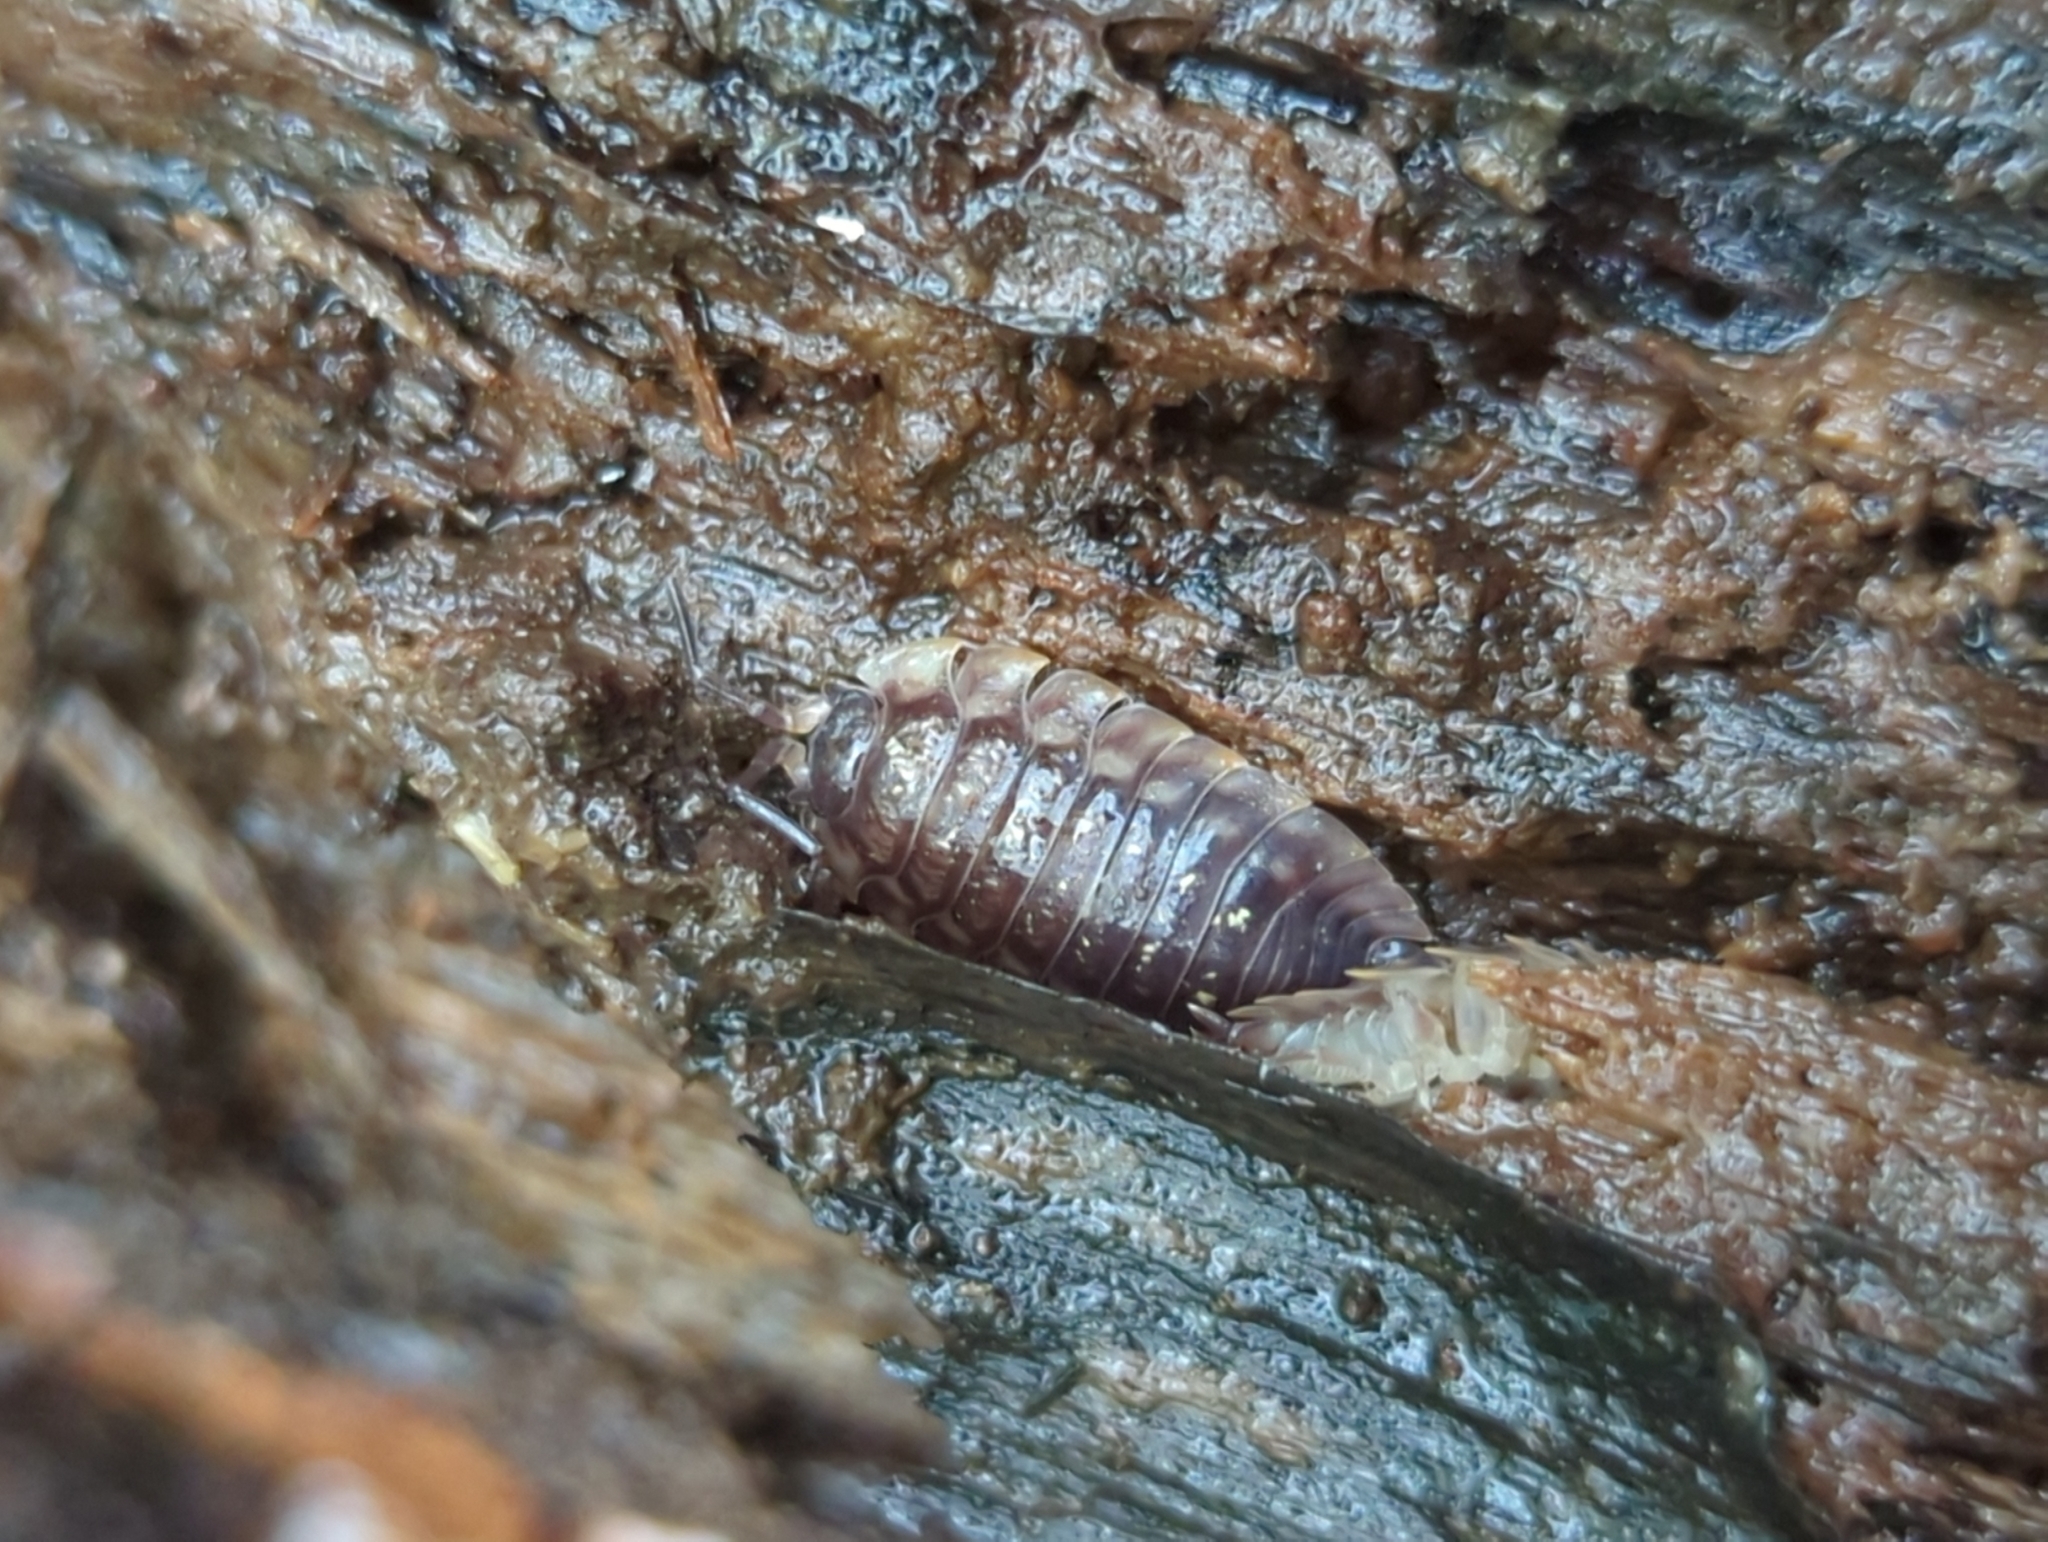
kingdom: Animalia
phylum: Arthropoda
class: Malacostraca
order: Isopoda
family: Oniscidae
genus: Oniscus
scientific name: Oniscus asellus
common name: Common shiny woodlouse
